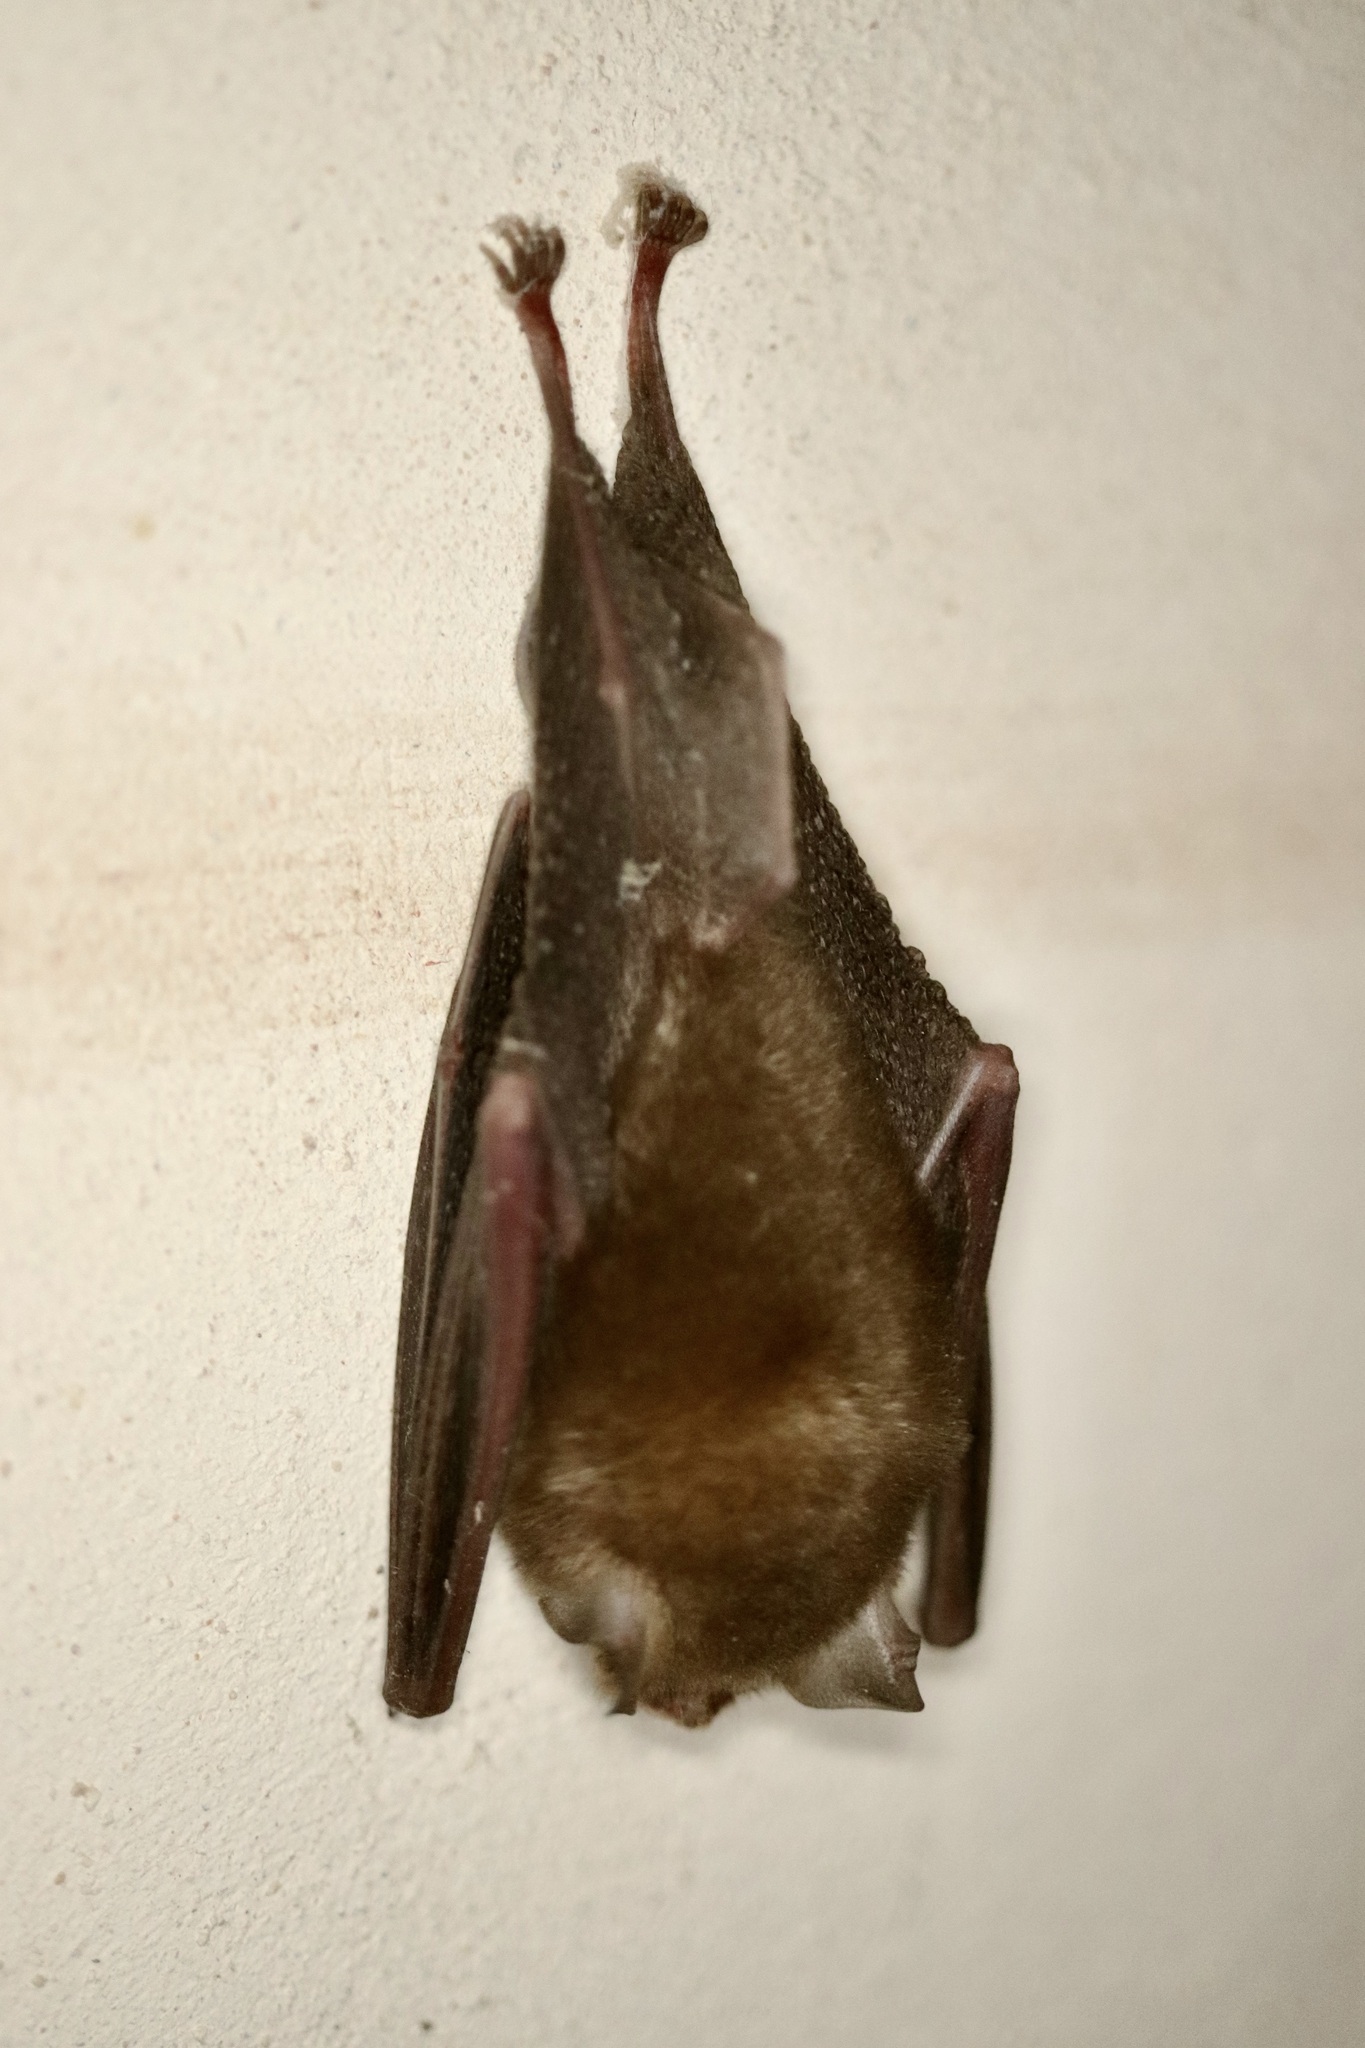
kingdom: Animalia
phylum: Chordata
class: Mammalia
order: Chiroptera
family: Natalidae
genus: Natalus
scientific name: Natalus mexicanus
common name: Mexican funnel-eared bat
